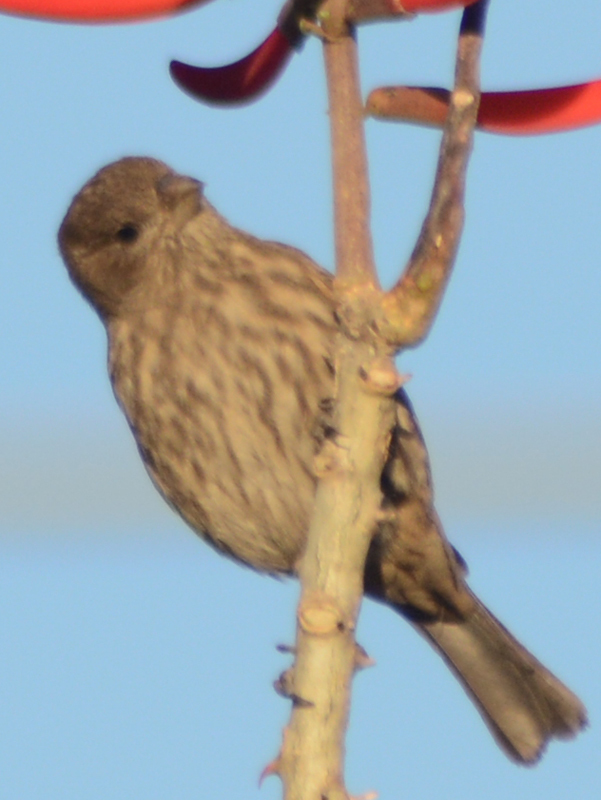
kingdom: Animalia
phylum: Chordata
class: Aves
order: Passeriformes
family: Fringillidae
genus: Haemorhous
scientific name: Haemorhous mexicanus
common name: House finch
